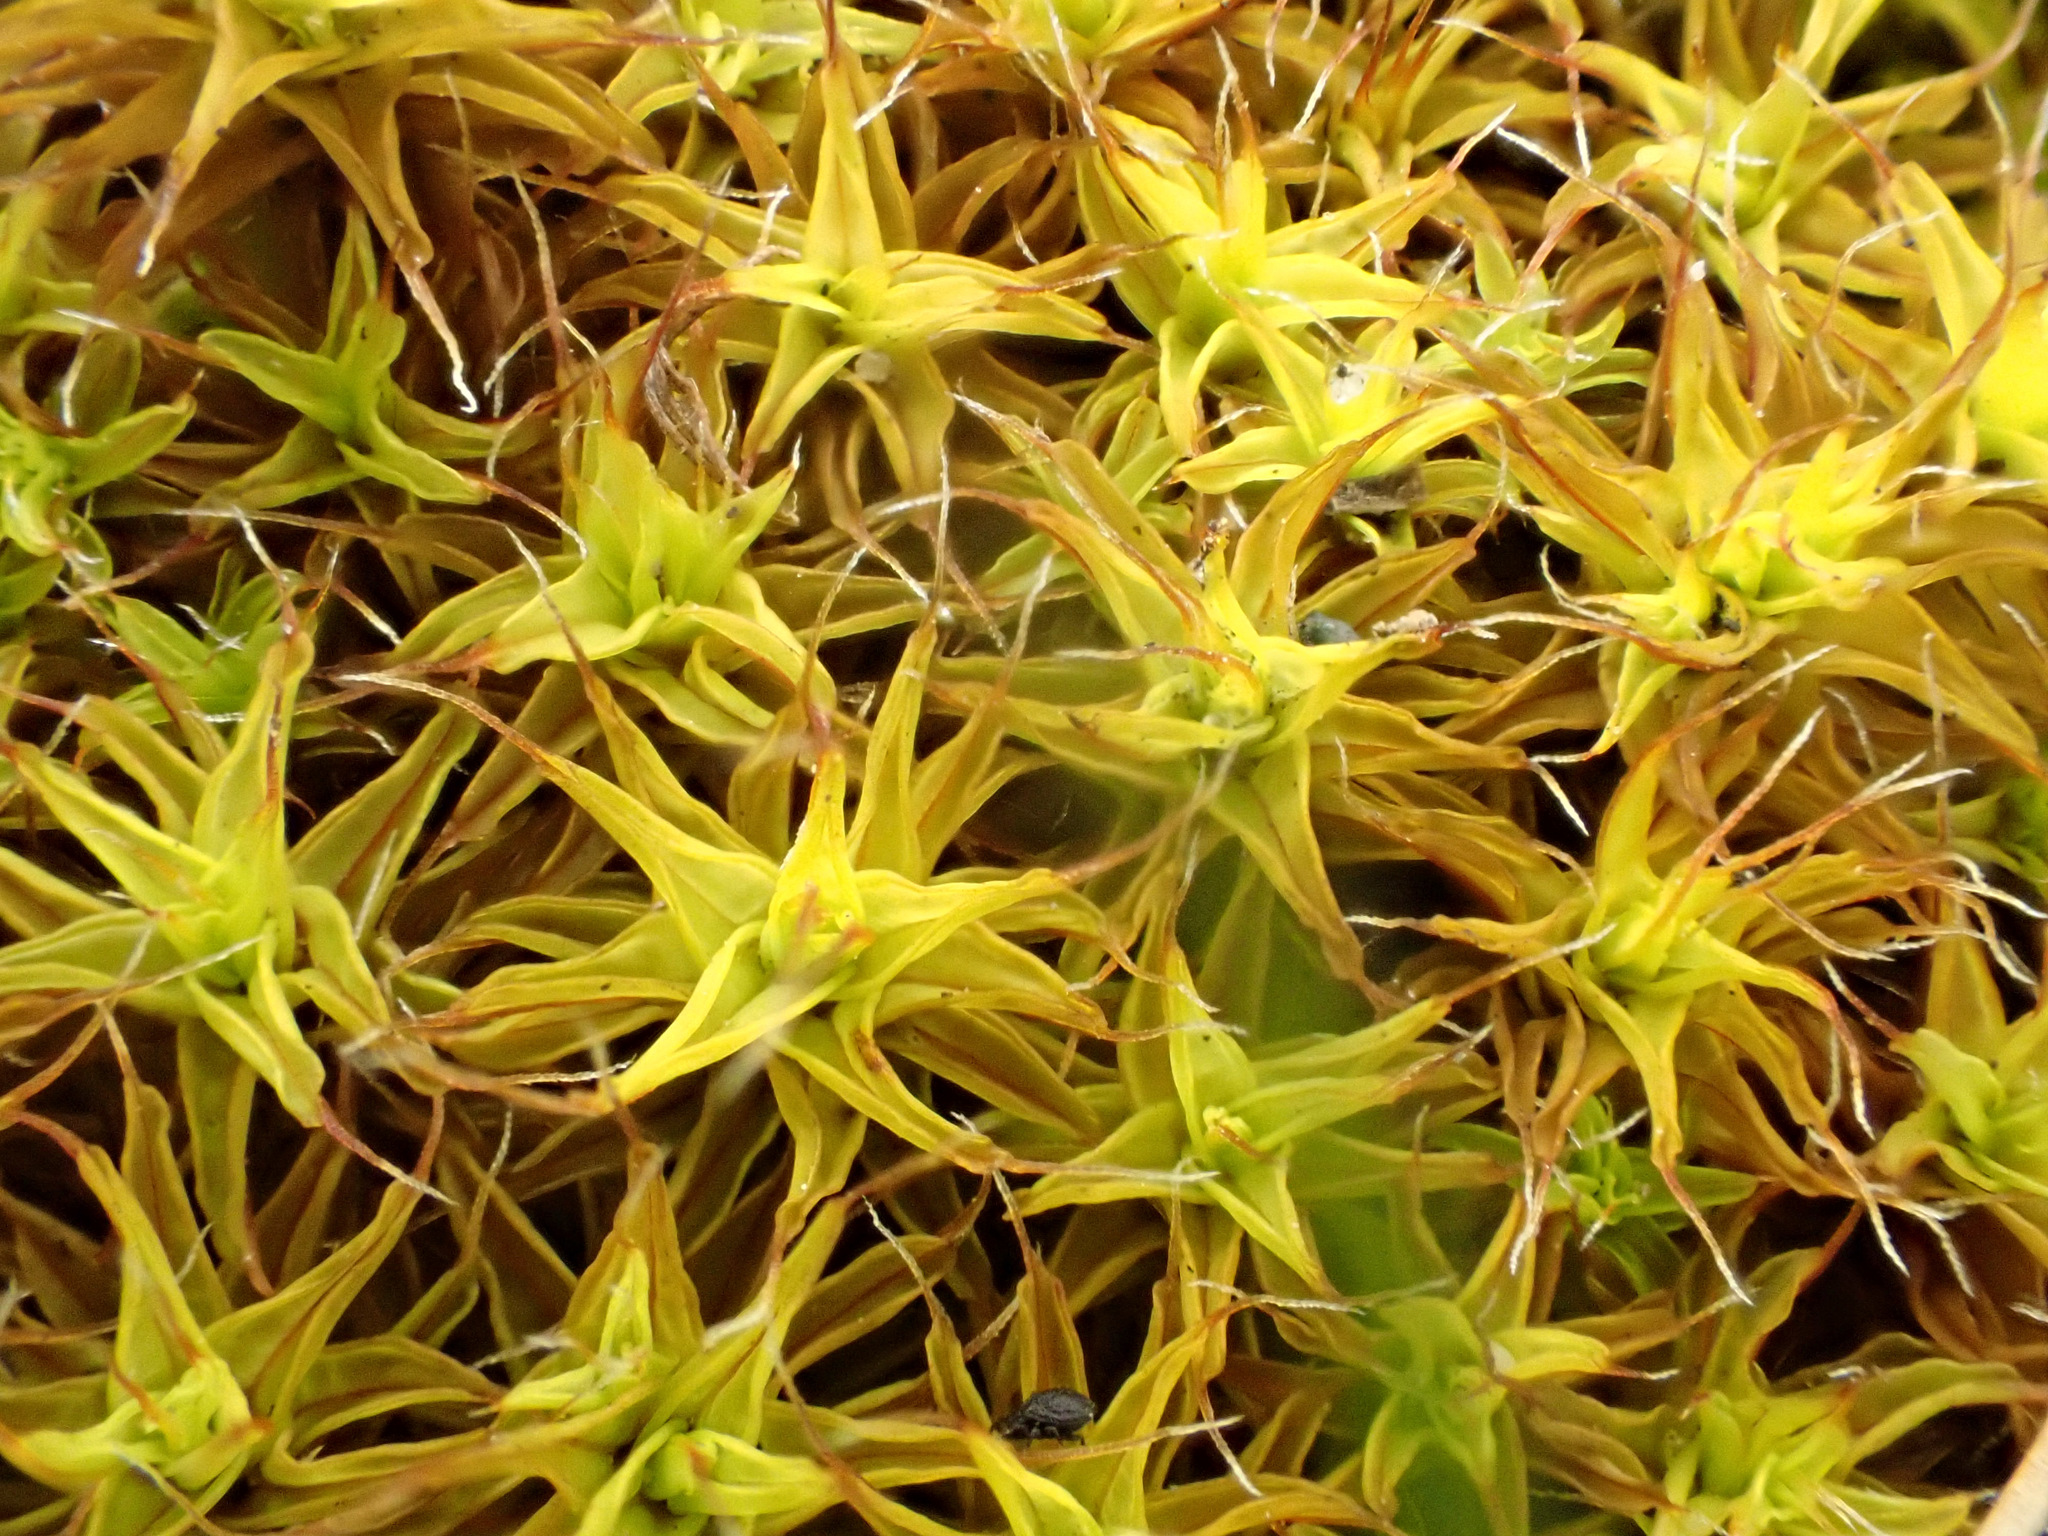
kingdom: Plantae
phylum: Bryophyta
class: Bryopsida
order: Pottiales
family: Pottiaceae
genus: Syntrichia
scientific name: Syntrichia ruralis
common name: Sidewalk screw moss
